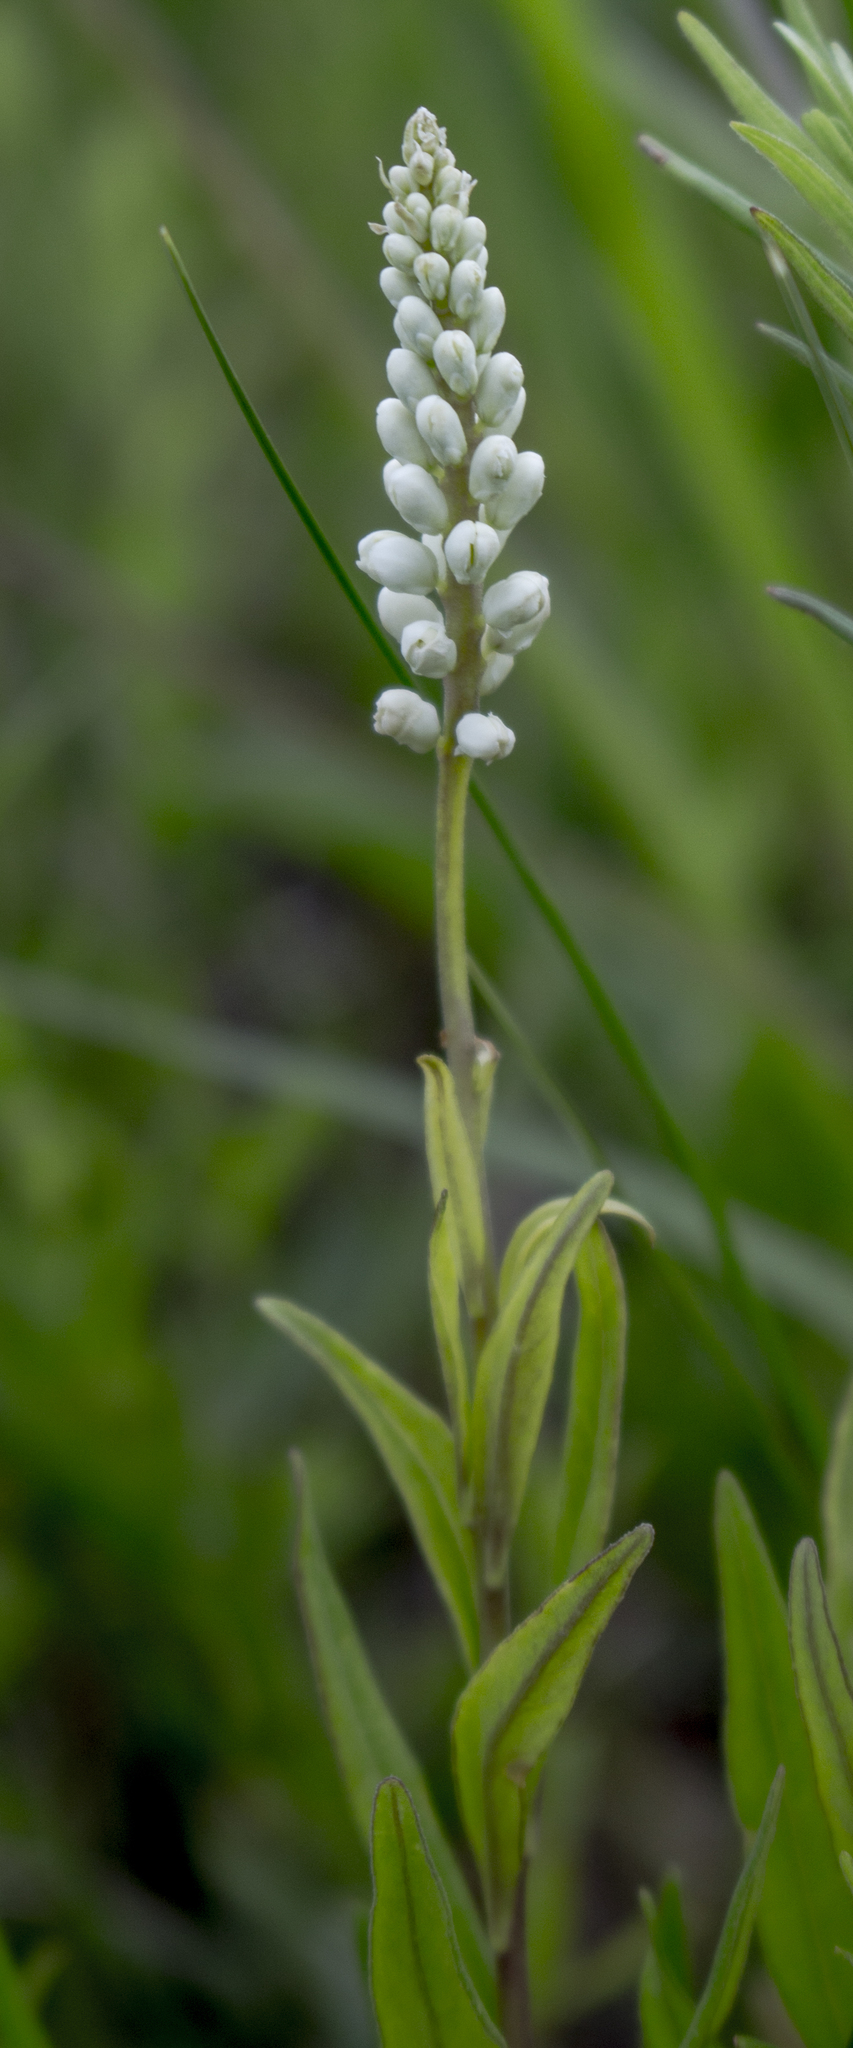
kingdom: Plantae
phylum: Tracheophyta
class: Magnoliopsida
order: Fabales
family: Polygalaceae
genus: Polygala
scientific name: Polygala senega
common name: Seneca snakeroot
